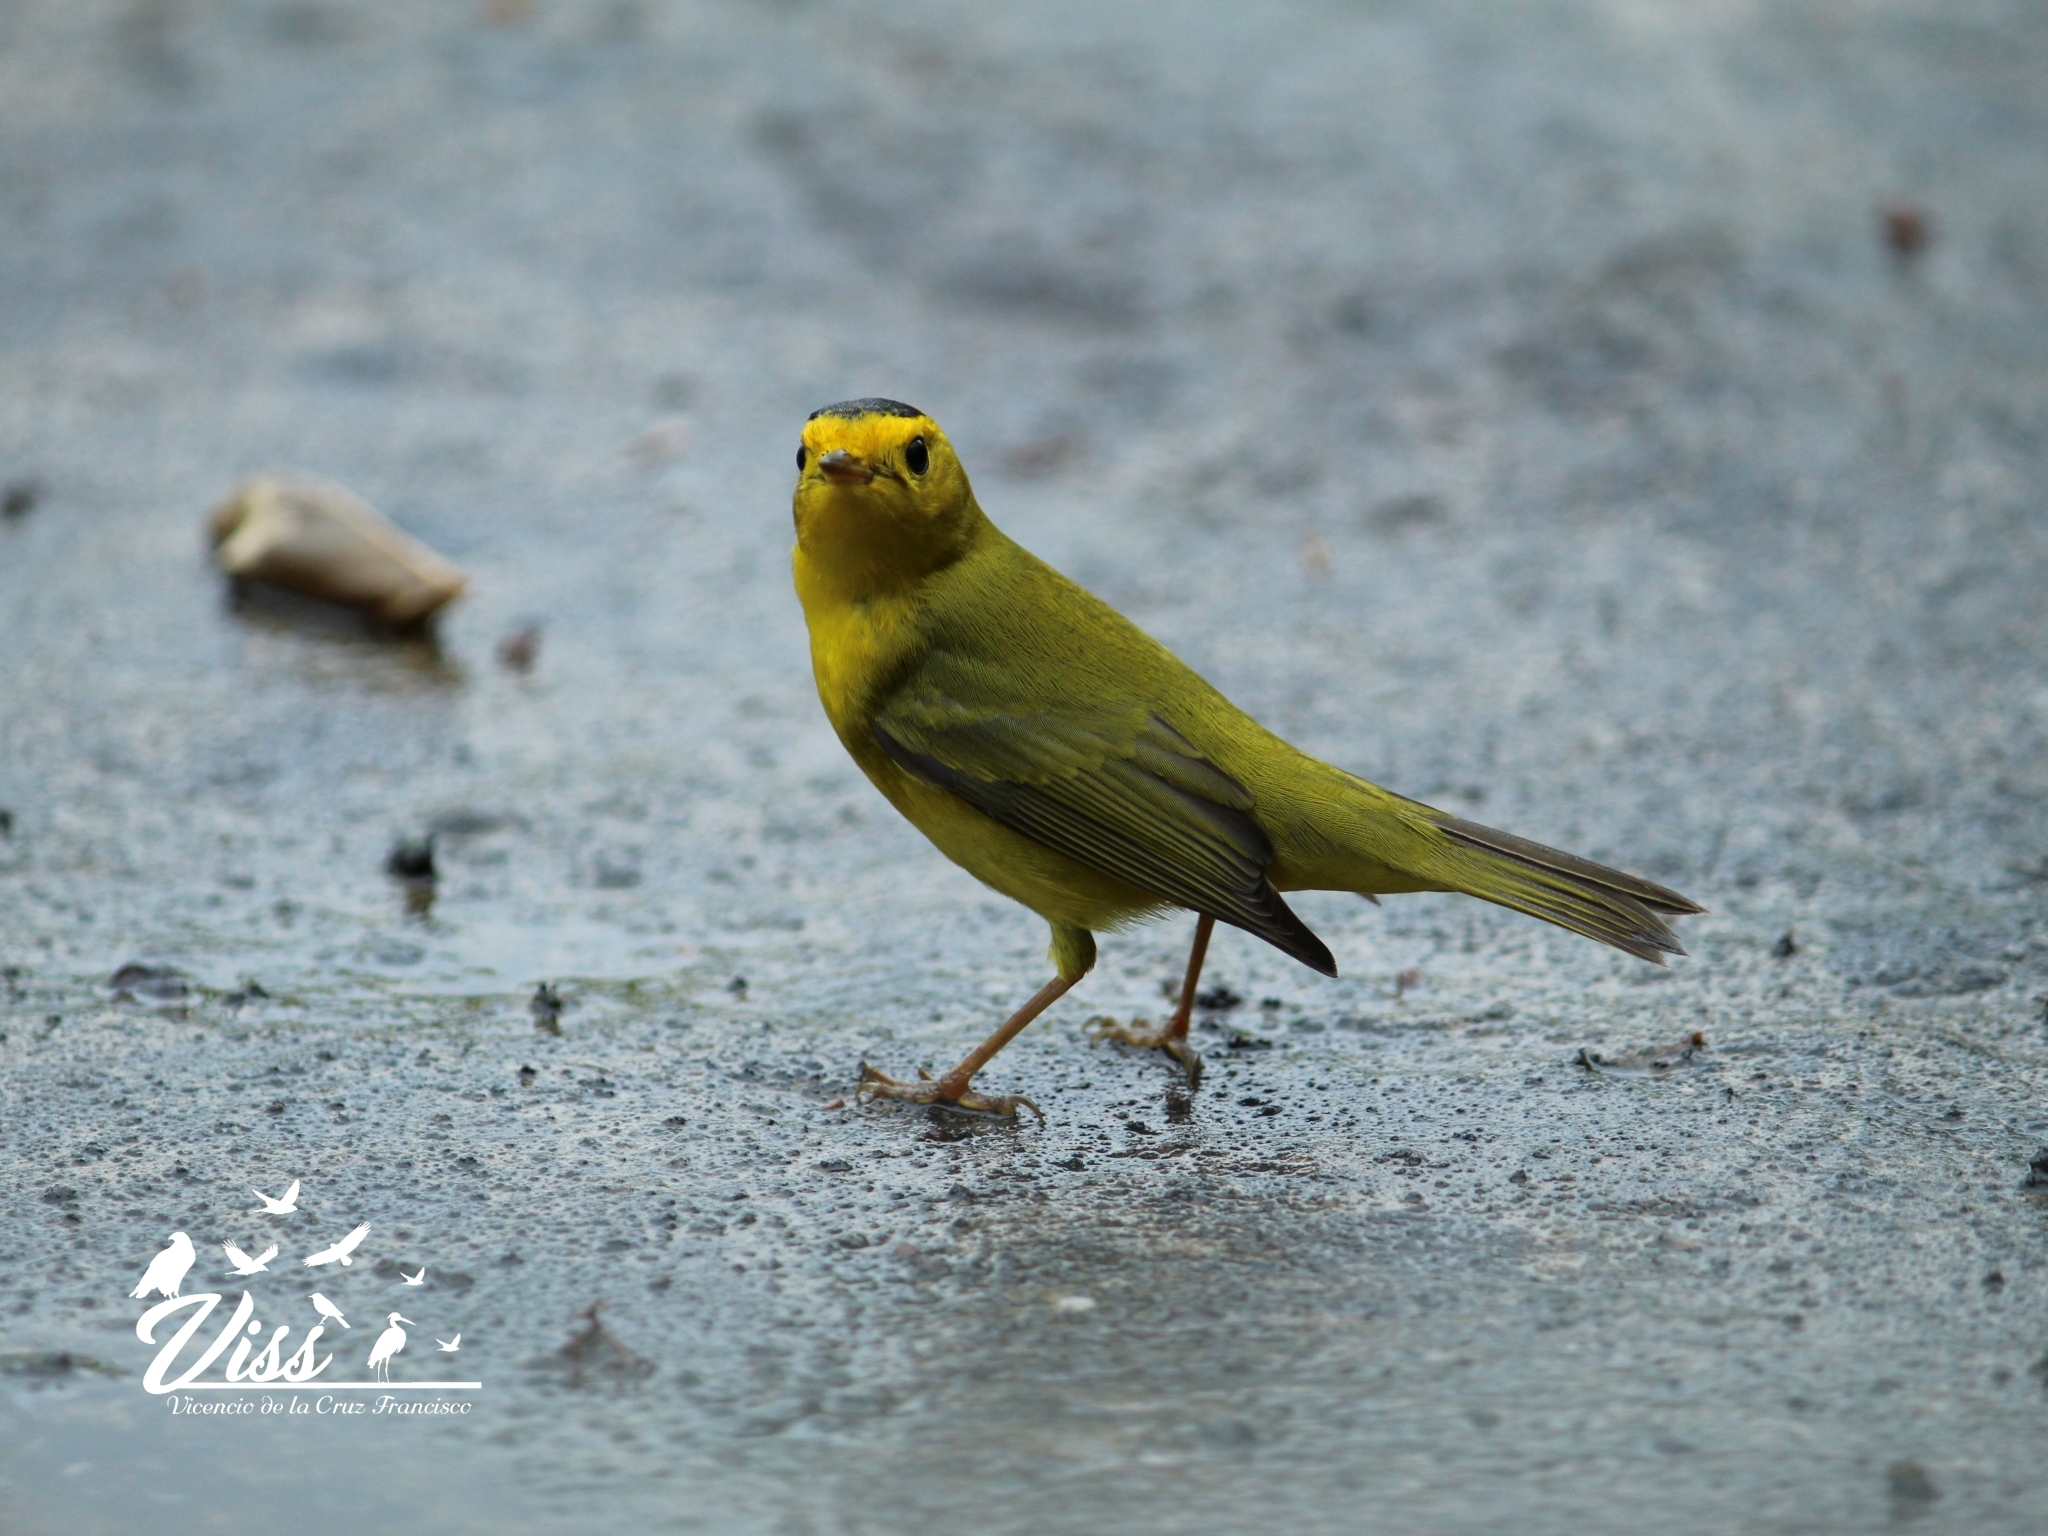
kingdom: Animalia
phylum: Chordata
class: Aves
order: Passeriformes
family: Parulidae
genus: Cardellina
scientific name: Cardellina pusilla
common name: Wilson's warbler
